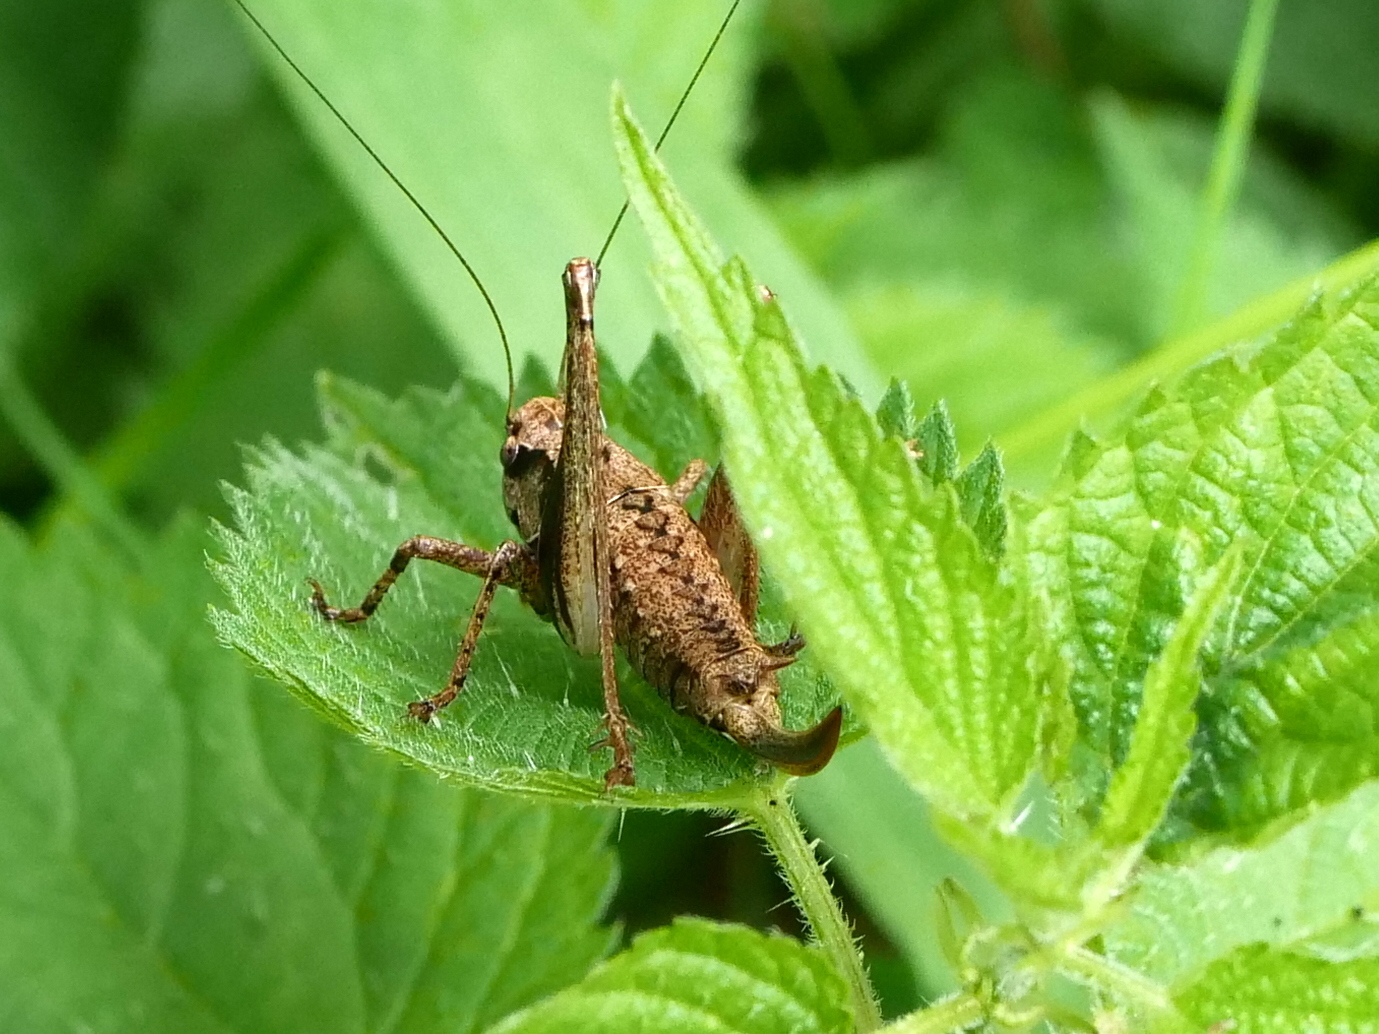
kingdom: Animalia
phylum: Arthropoda
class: Insecta
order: Orthoptera
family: Tettigoniidae
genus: Pholidoptera
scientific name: Pholidoptera griseoaptera
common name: Dark bush-cricket
